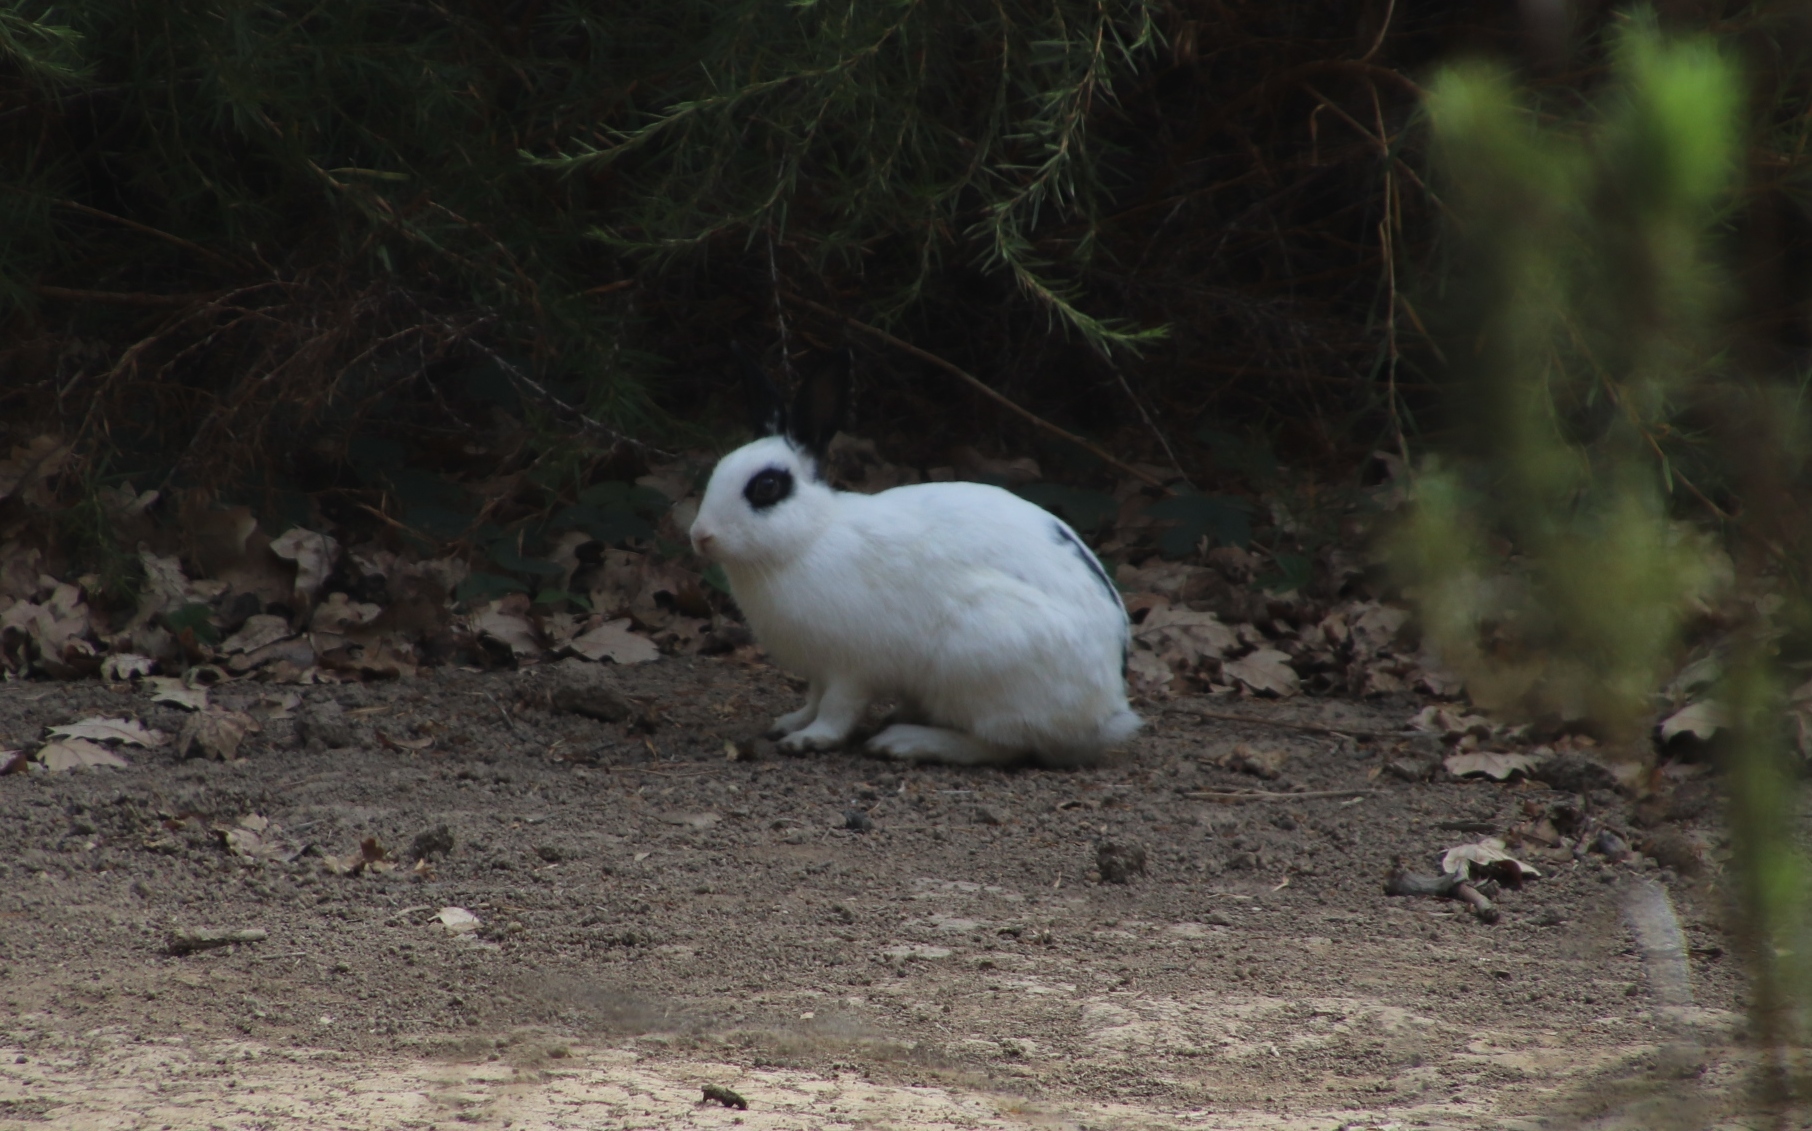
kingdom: Animalia
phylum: Chordata
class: Mammalia
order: Lagomorpha
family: Leporidae
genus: Oryctolagus
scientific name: Oryctolagus cuniculus
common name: European rabbit
